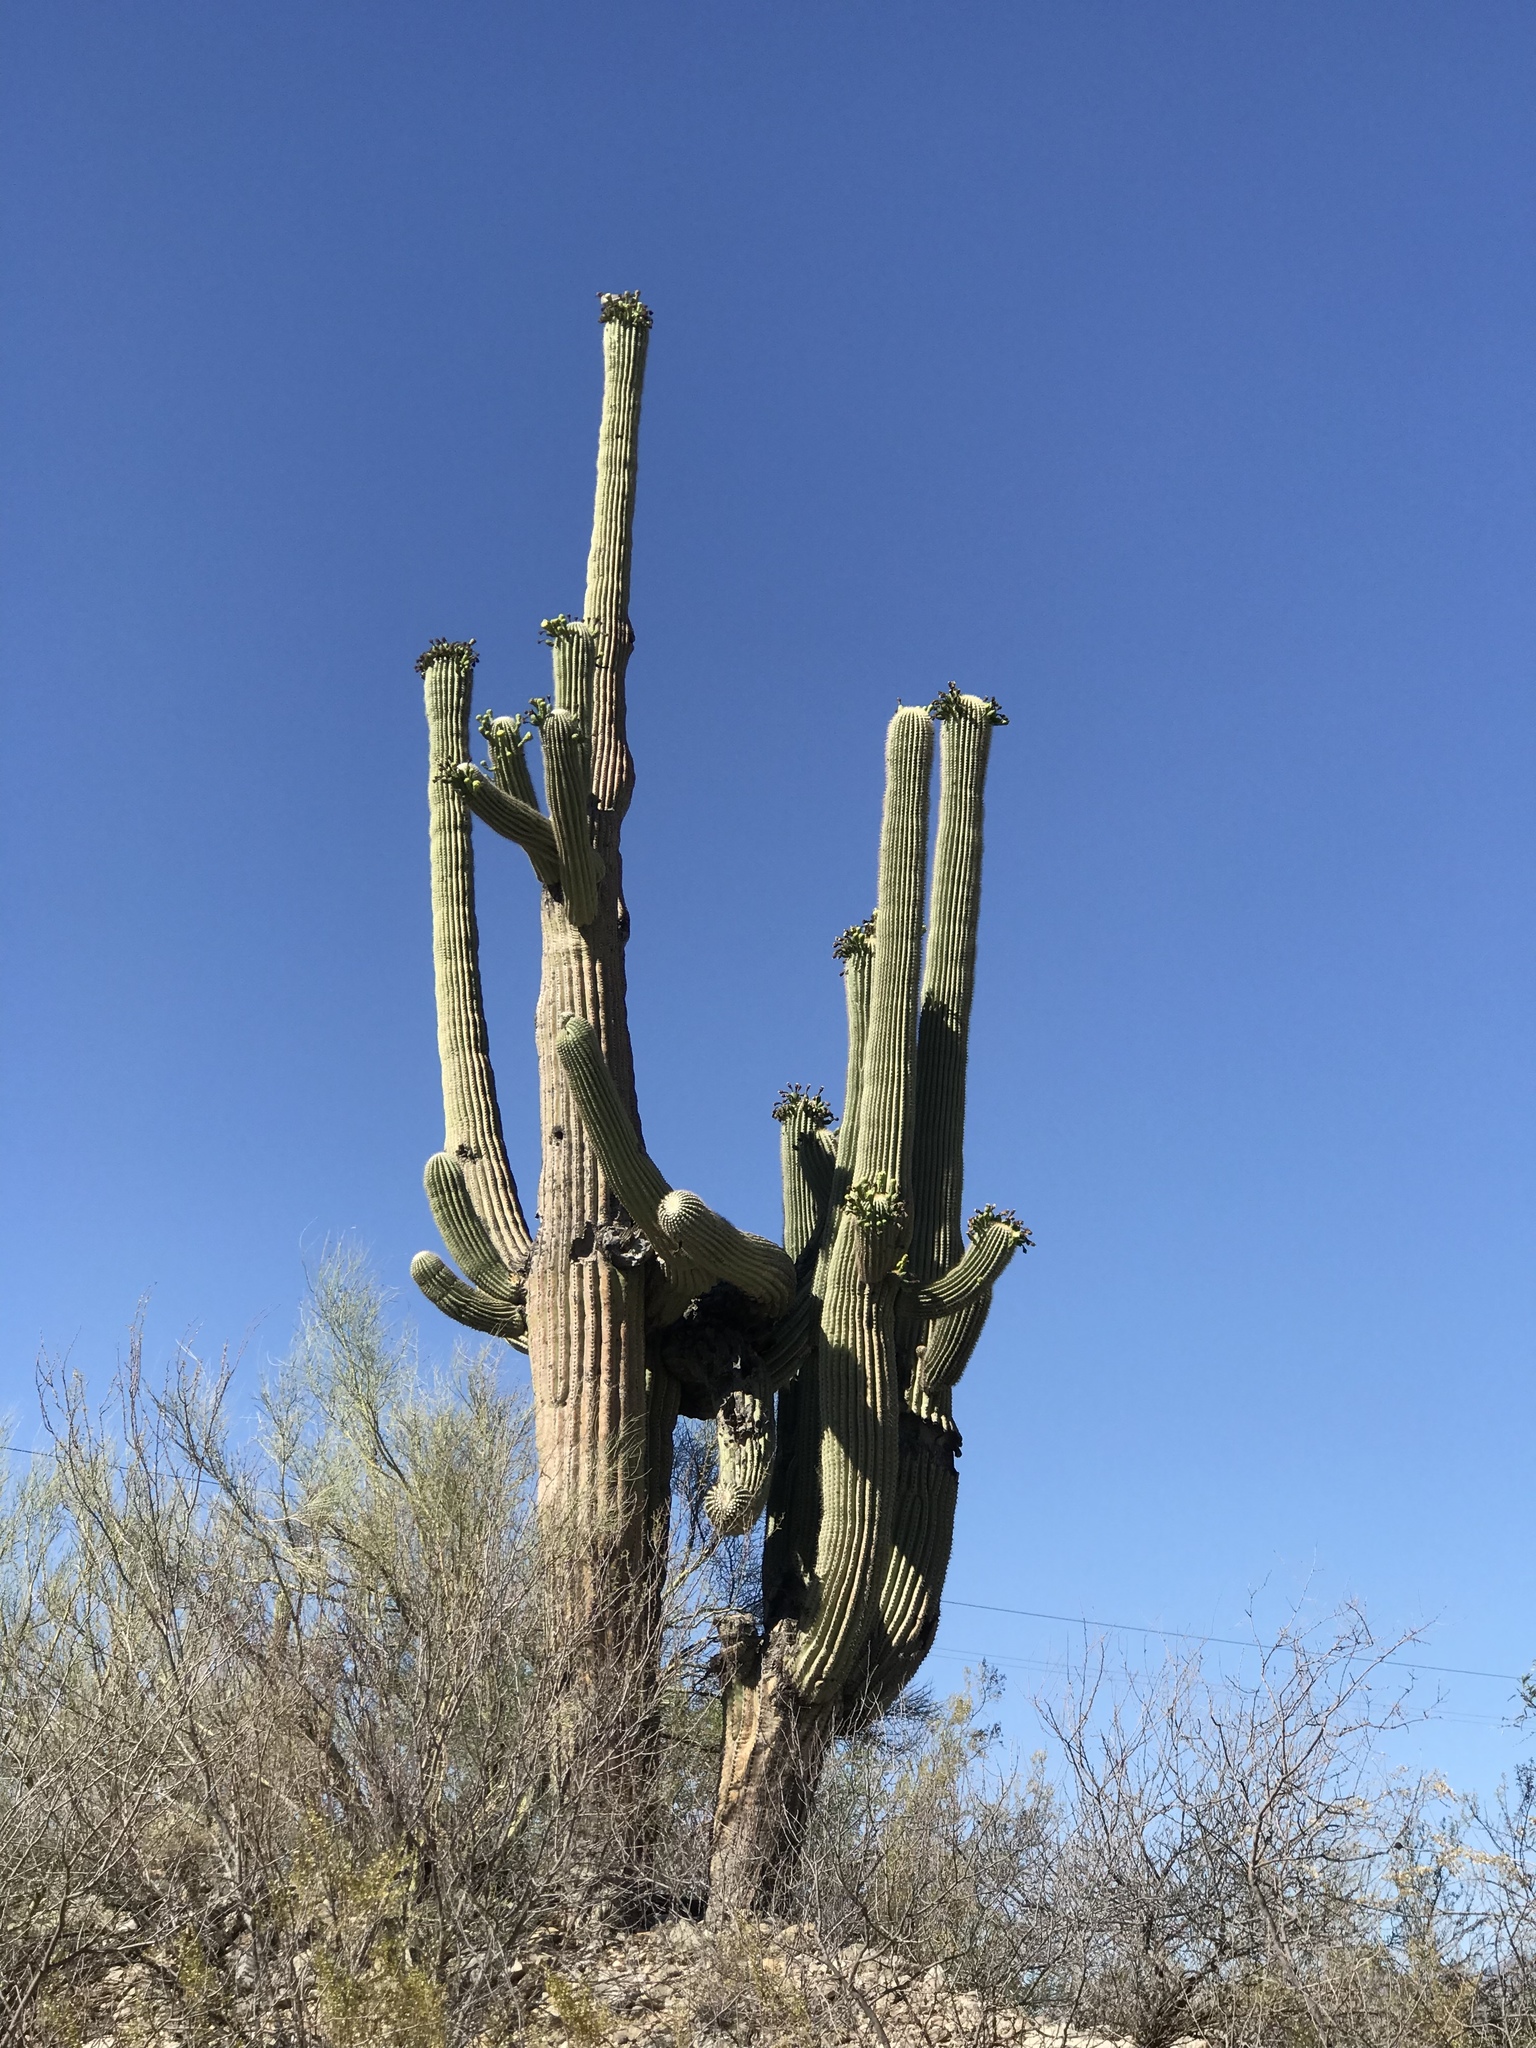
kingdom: Plantae
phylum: Tracheophyta
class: Magnoliopsida
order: Caryophyllales
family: Cactaceae
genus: Carnegiea
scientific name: Carnegiea gigantea
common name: Saguaro
